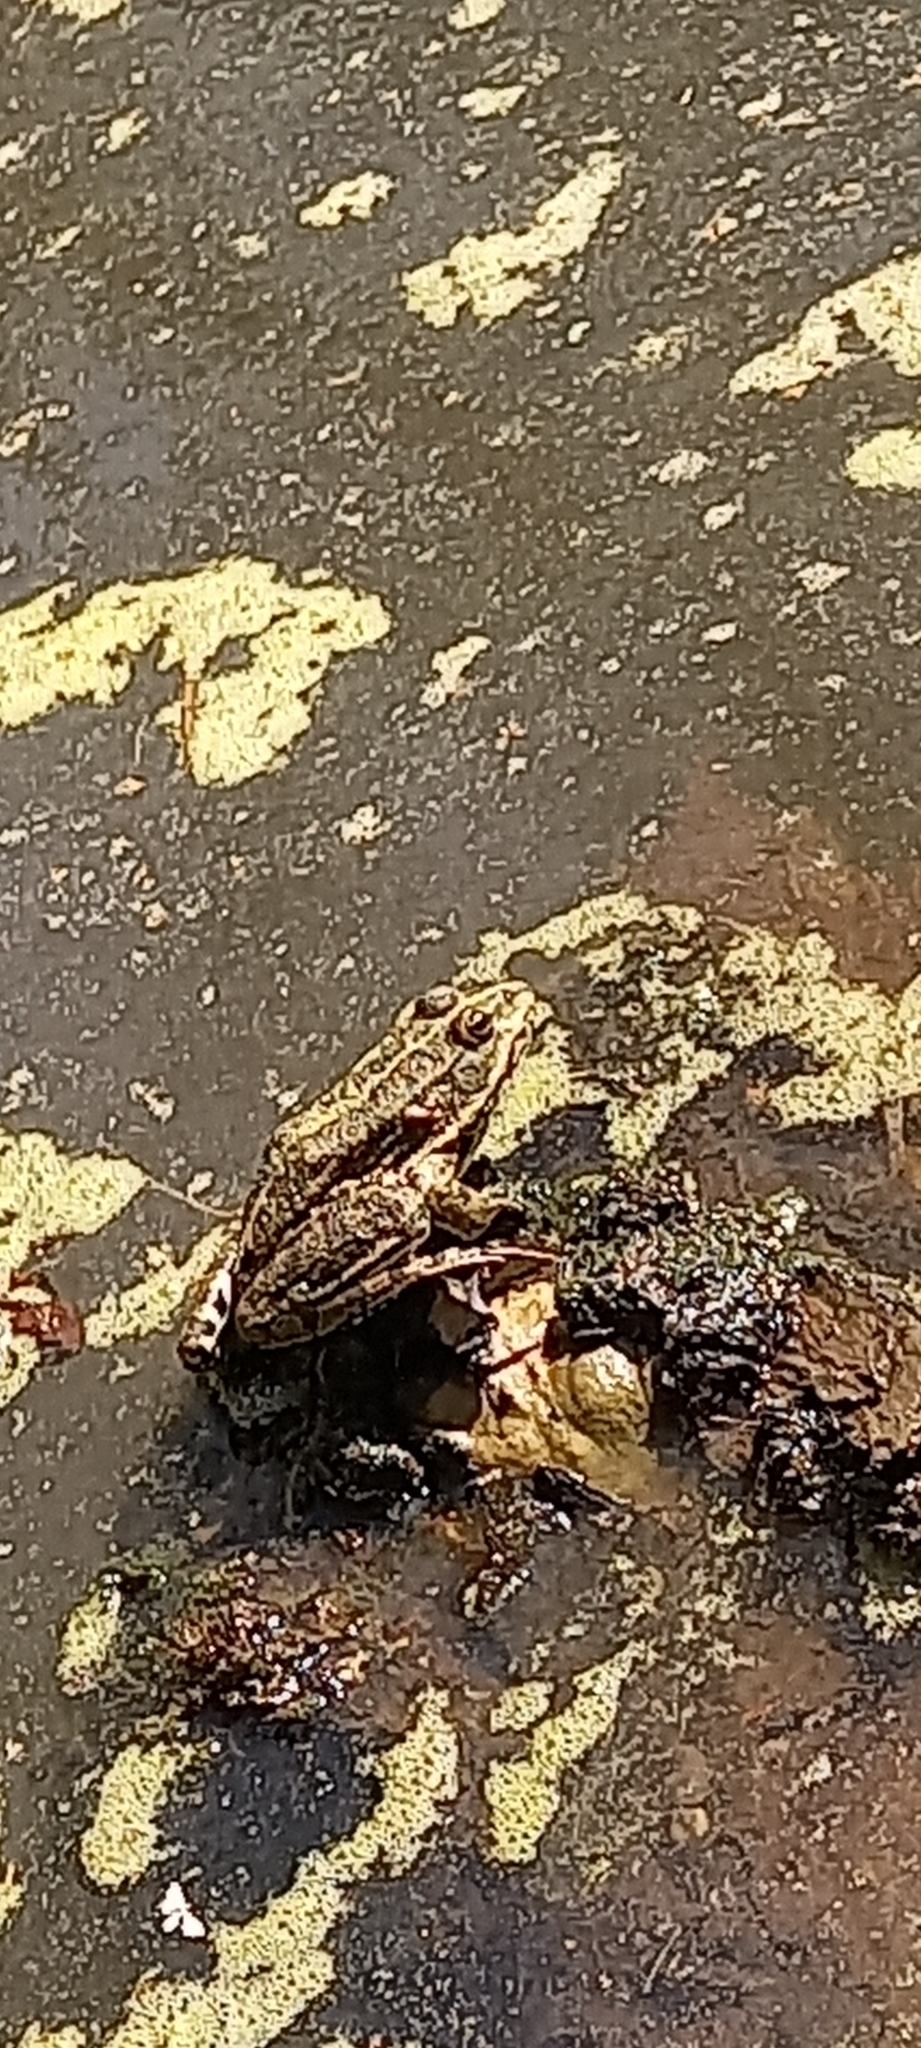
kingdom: Animalia
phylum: Chordata
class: Amphibia
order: Anura
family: Ranidae
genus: Pelophylax
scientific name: Pelophylax ridibundus
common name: Marsh frog
